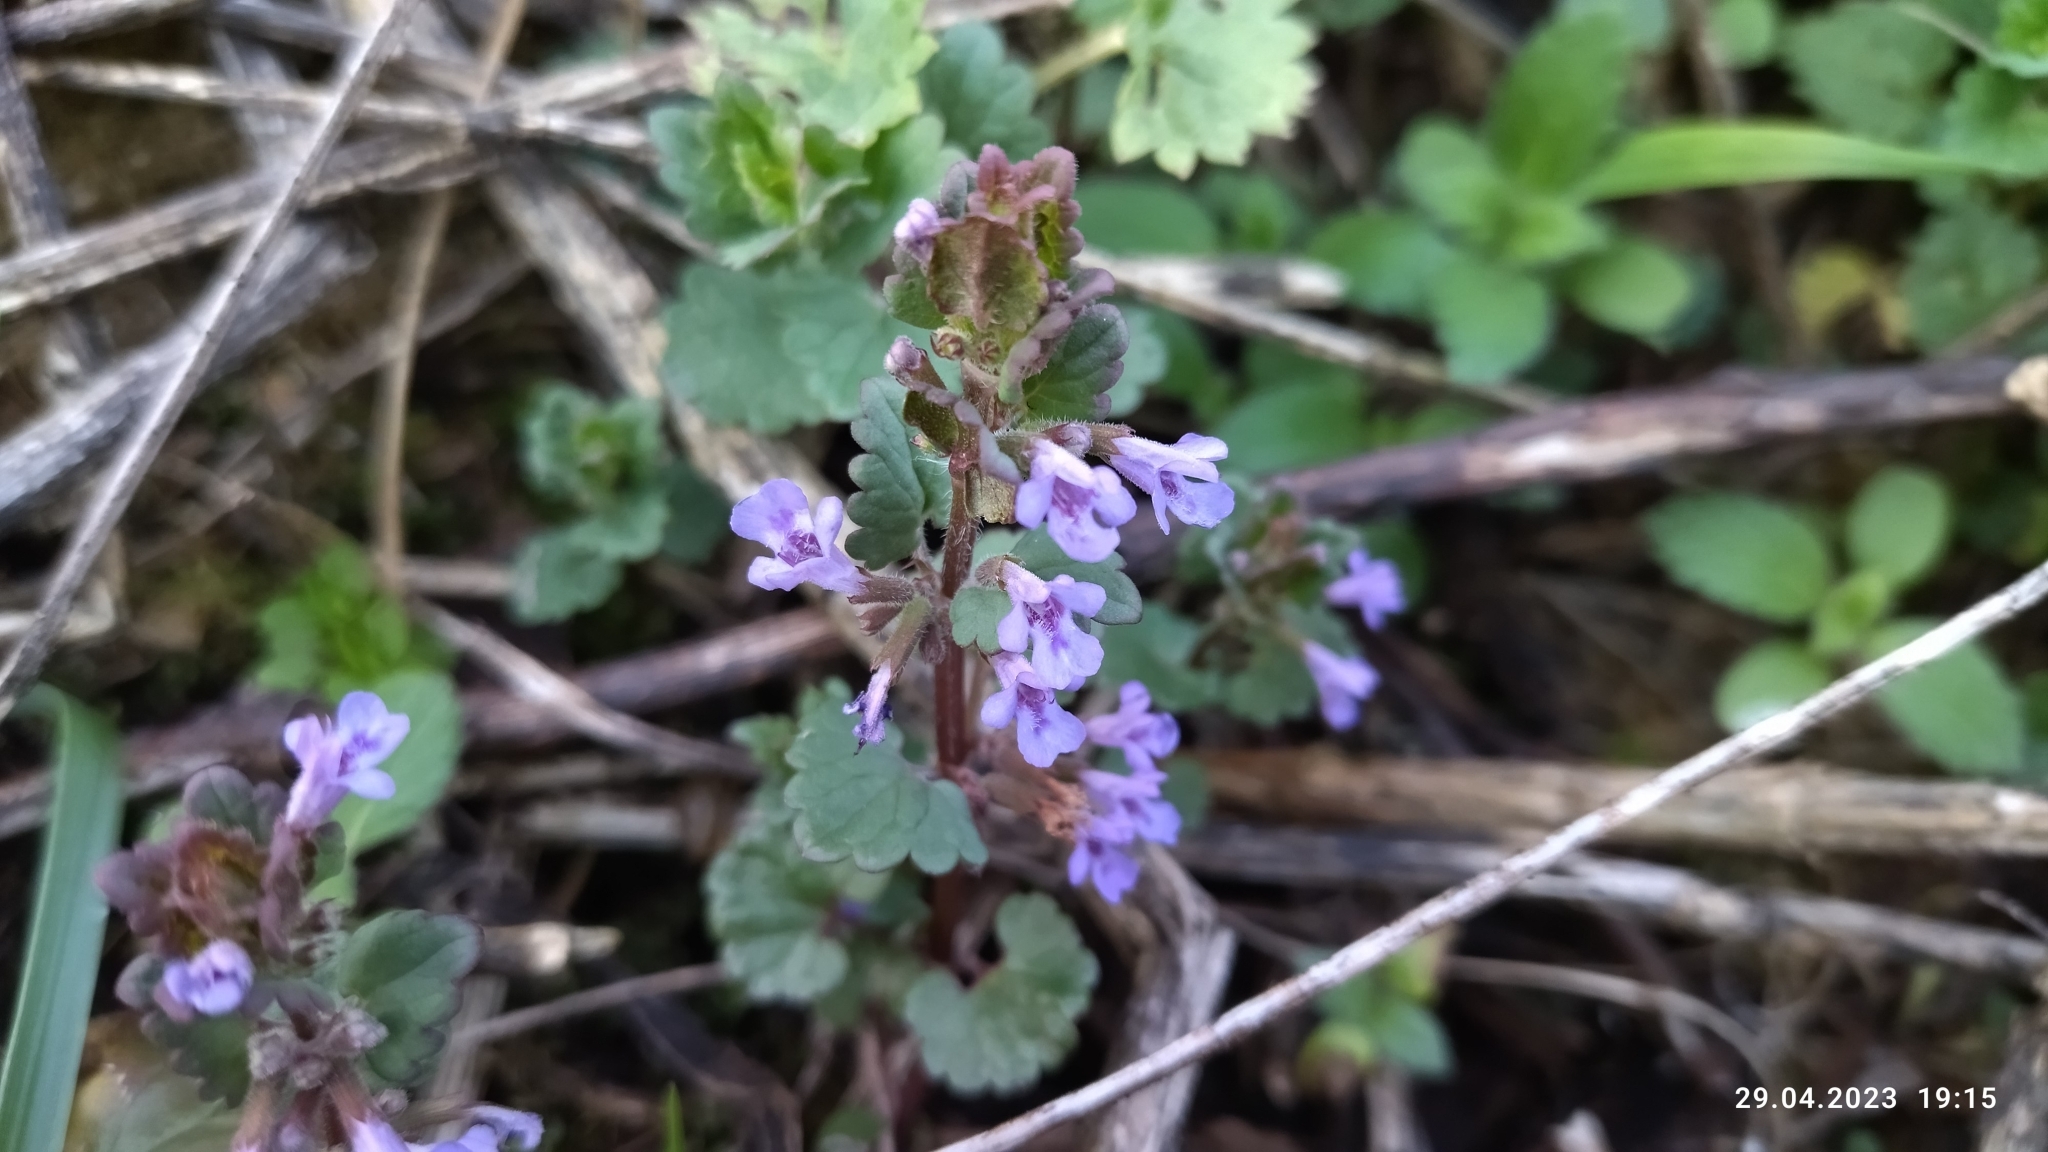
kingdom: Plantae
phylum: Tracheophyta
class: Magnoliopsida
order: Lamiales
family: Lamiaceae
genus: Glechoma
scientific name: Glechoma hederacea
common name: Ground ivy
